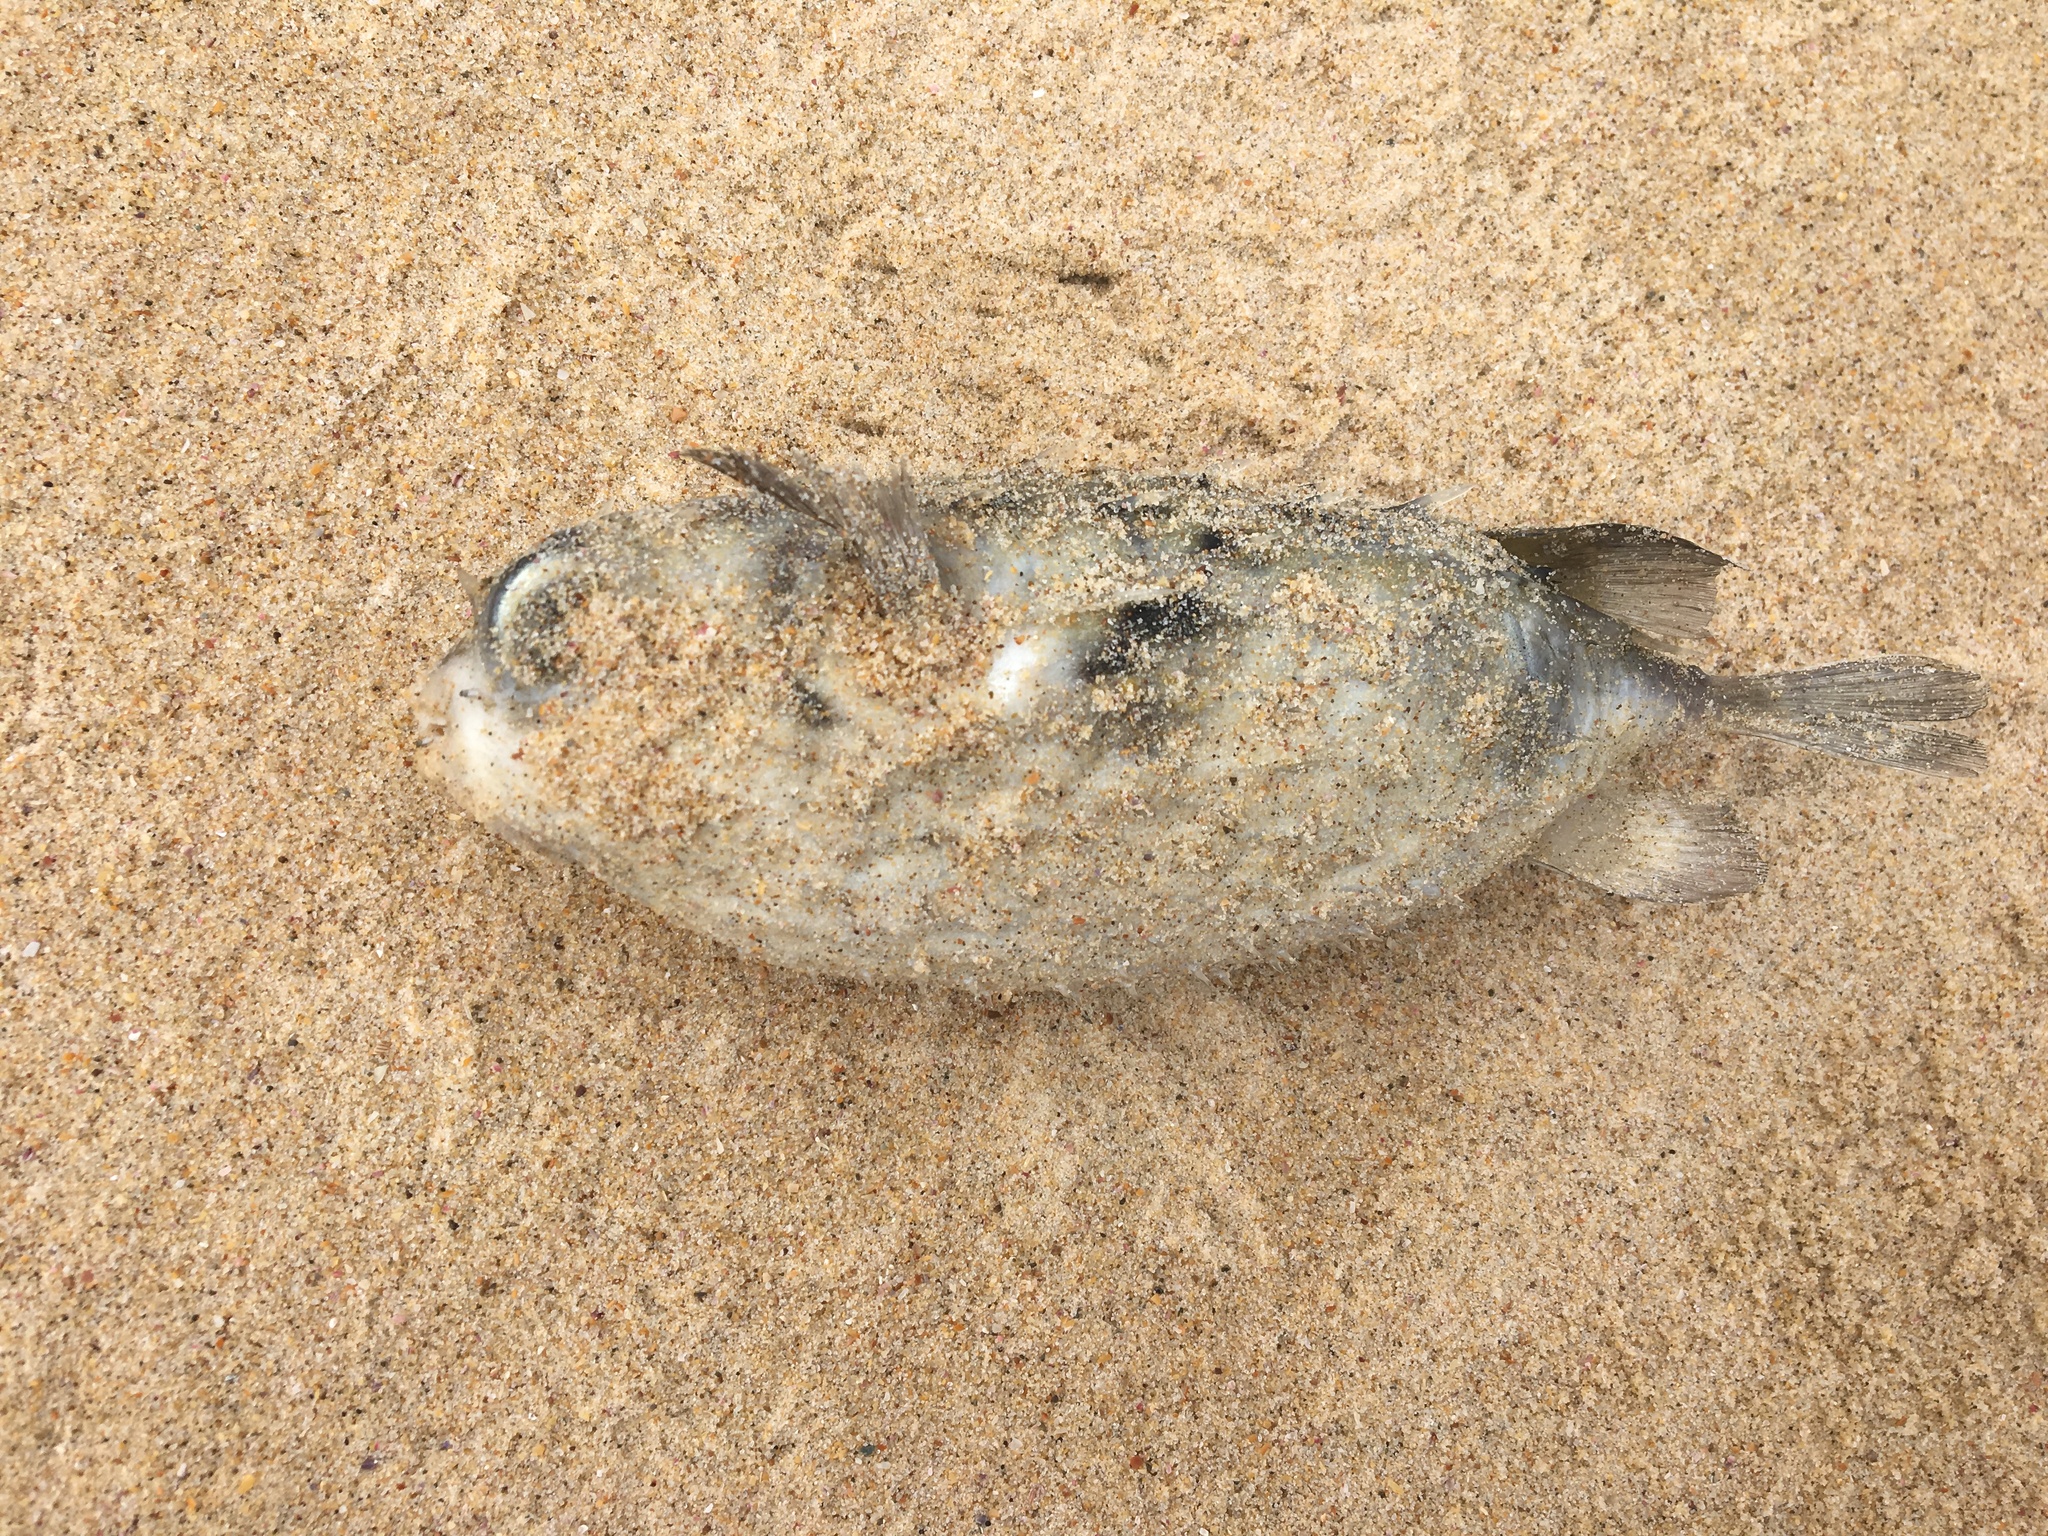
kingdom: Animalia
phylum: Chordata
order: Tetraodontiformes
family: Diodontidae
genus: Allomycterus
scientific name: Allomycterus pilatus
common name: No common name
